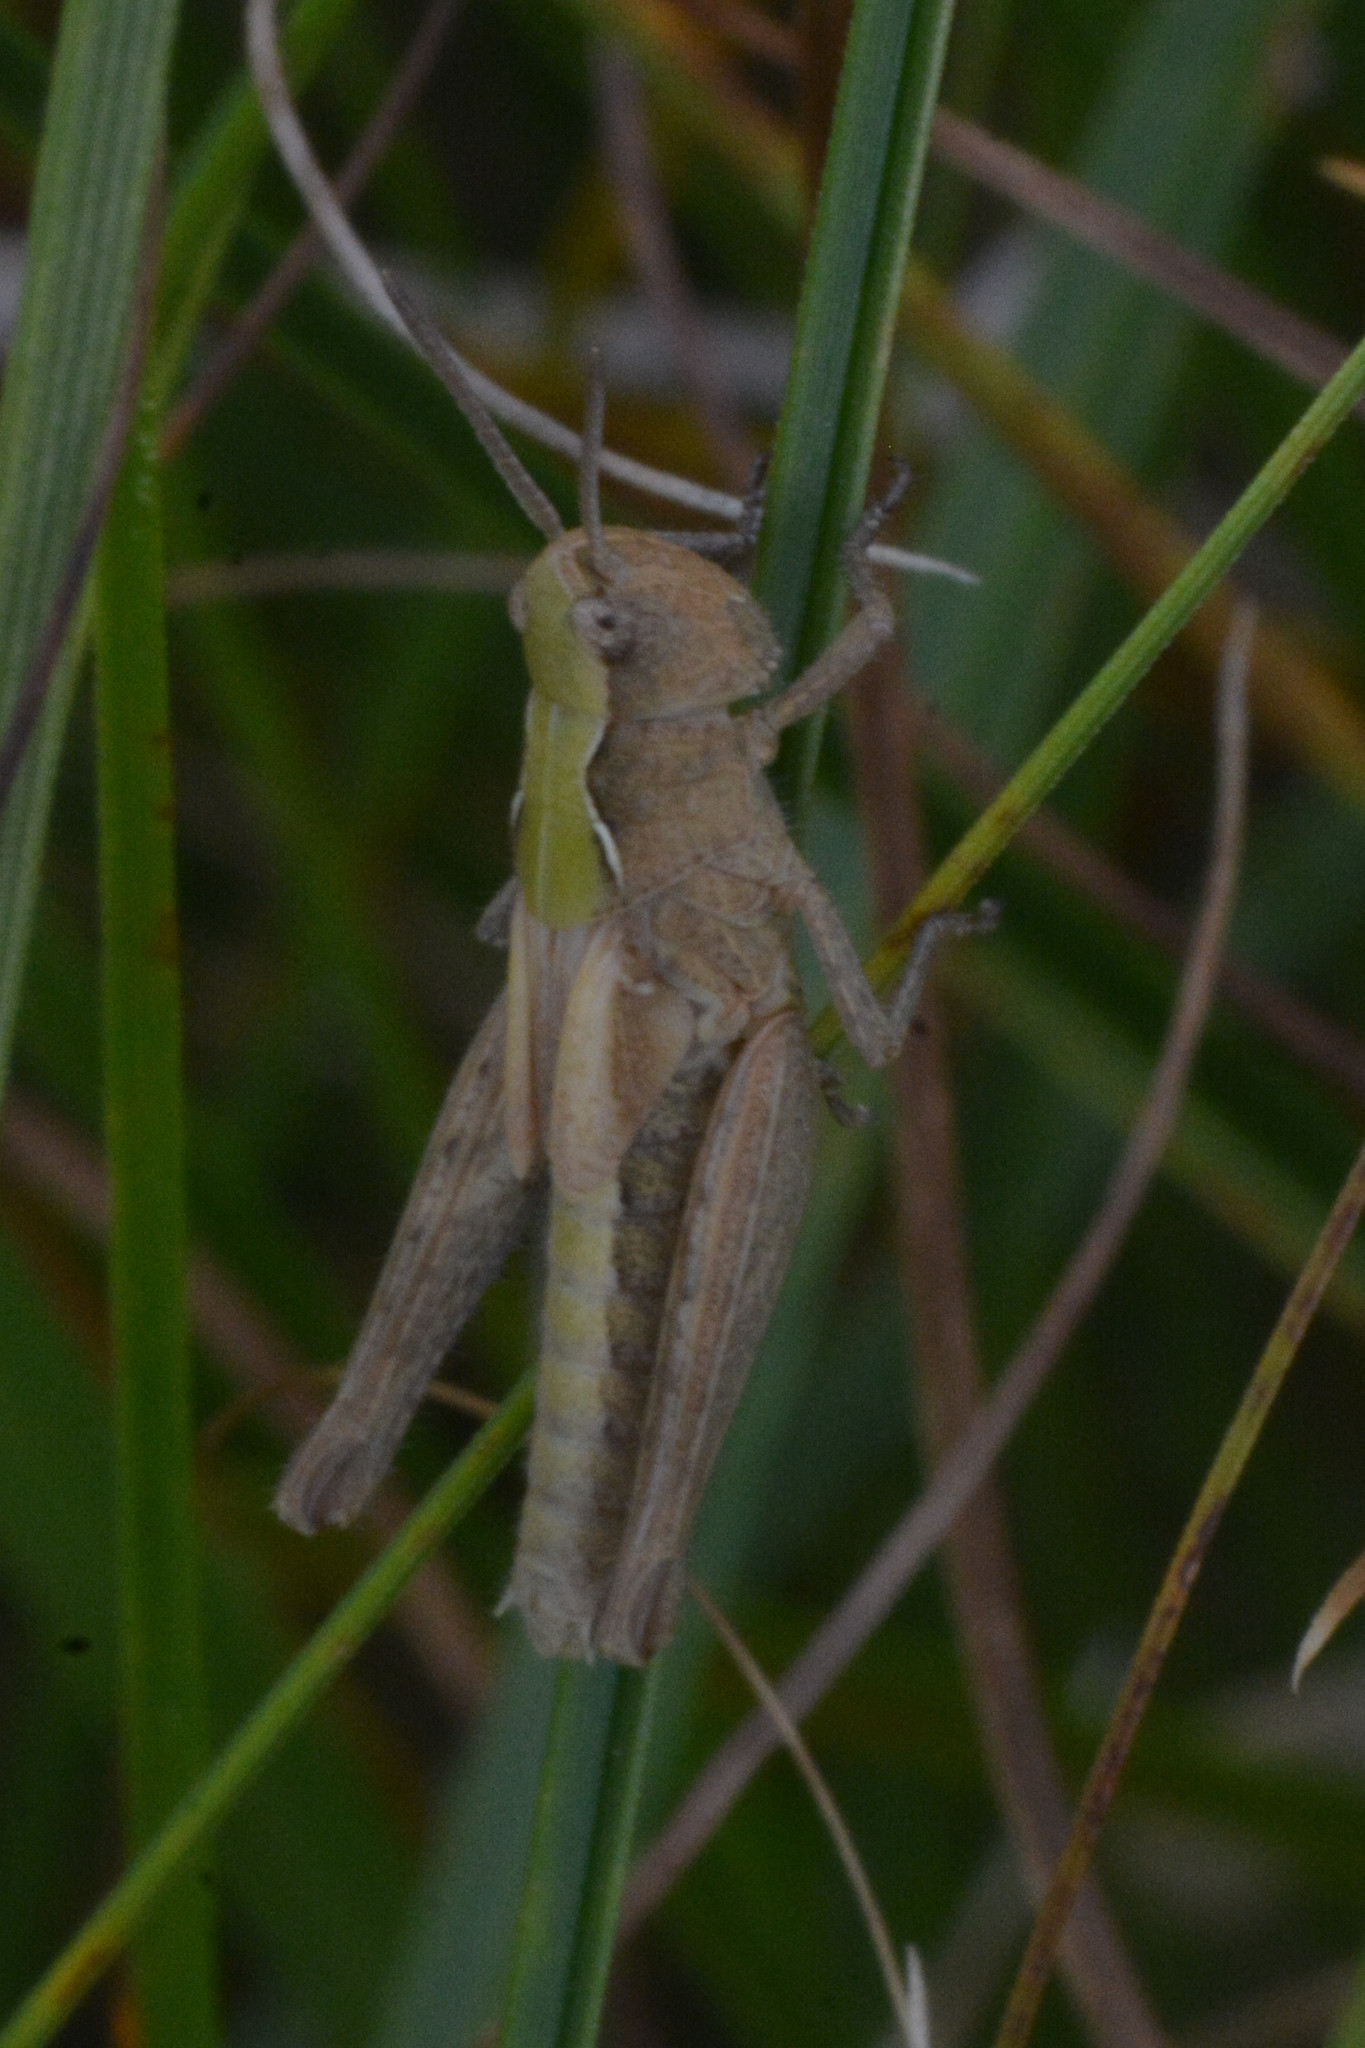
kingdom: Animalia
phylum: Arthropoda
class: Insecta
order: Orthoptera
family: Acrididae
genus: Chorthippus
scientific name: Chorthippus brunneus
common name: Field grasshopper
